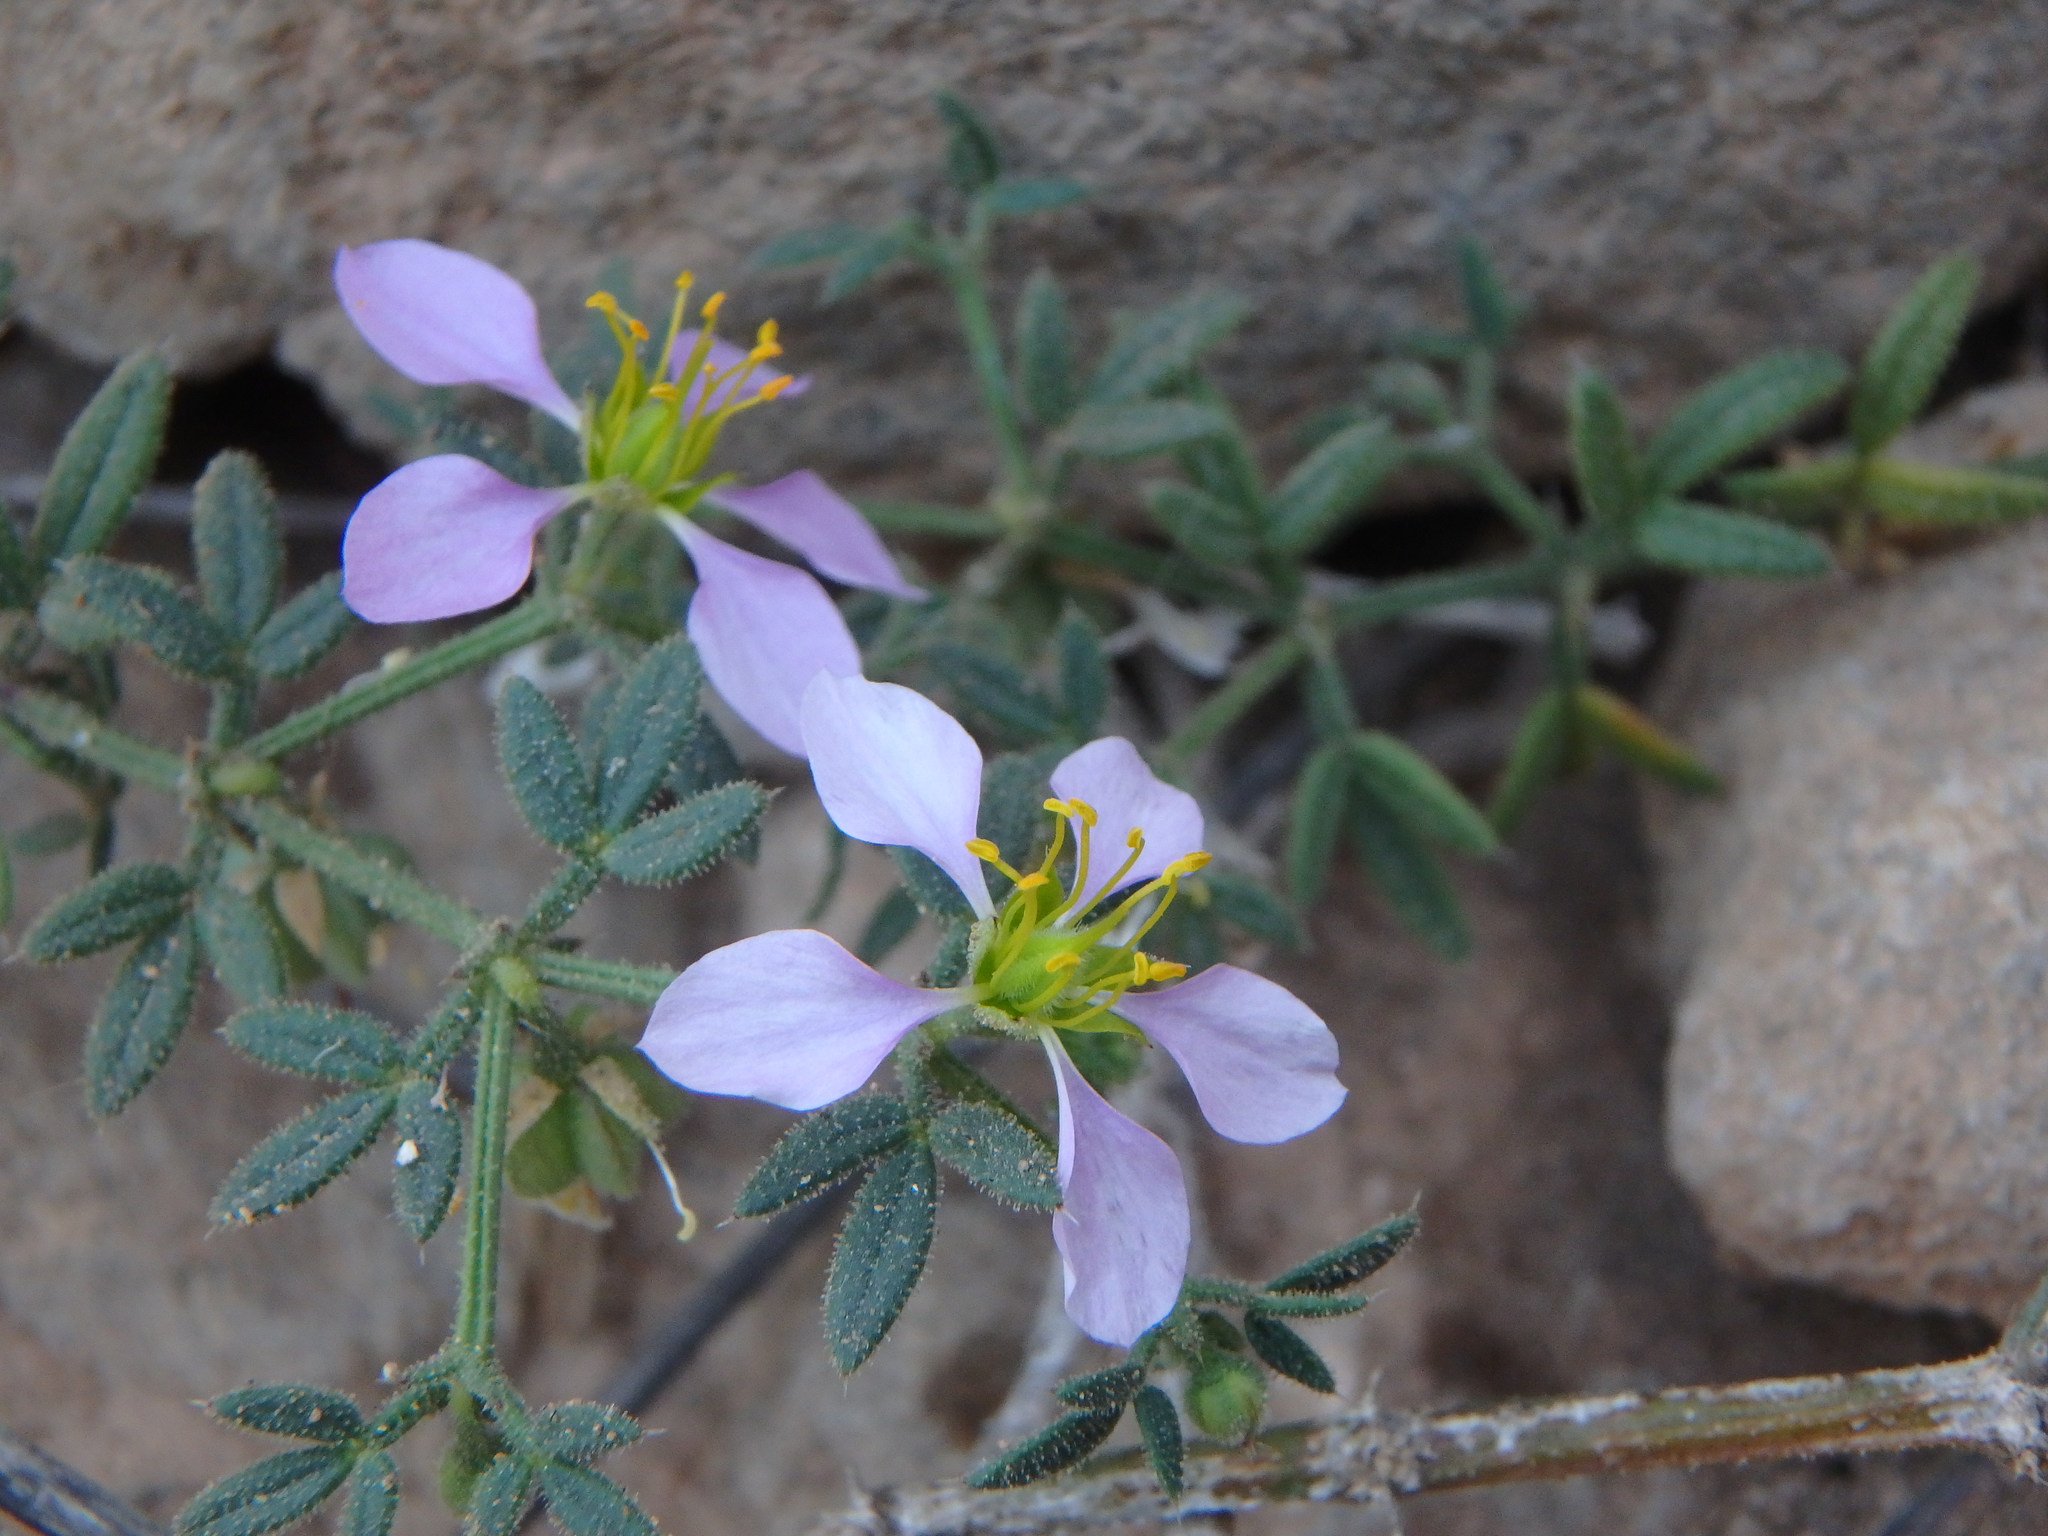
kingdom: Plantae
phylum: Tracheophyta
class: Magnoliopsida
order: Zygophyllales
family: Zygophyllaceae
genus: Fagonia
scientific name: Fagonia cretica
